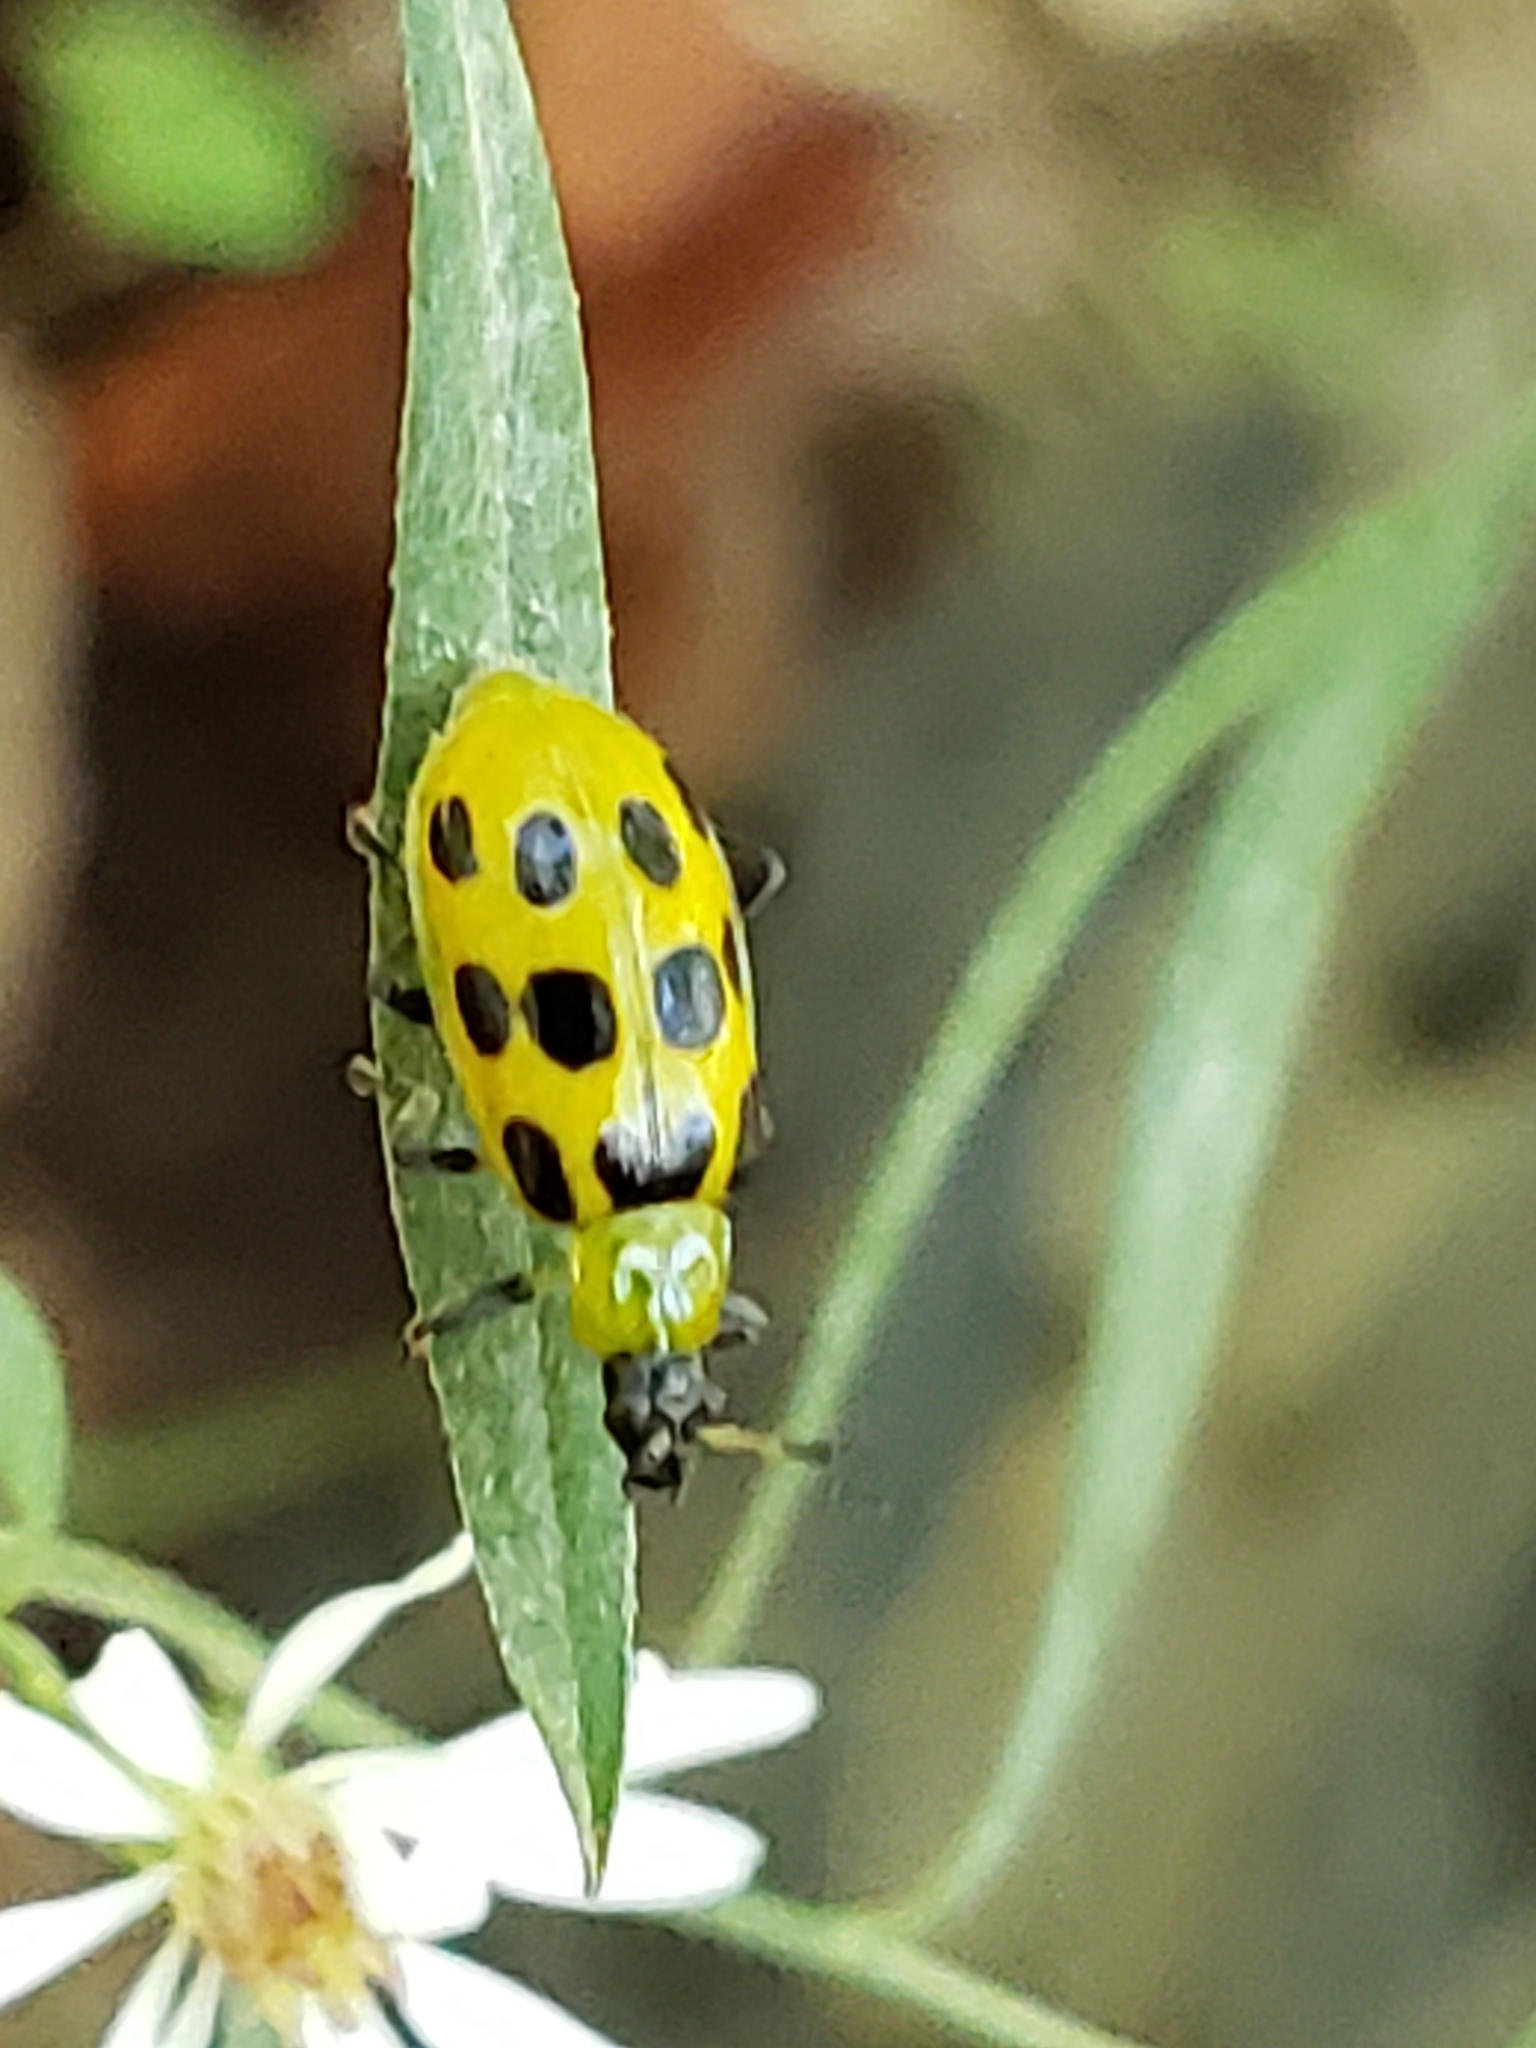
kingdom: Animalia
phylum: Arthropoda
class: Insecta
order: Coleoptera
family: Chrysomelidae
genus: Diabrotica
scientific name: Diabrotica undecimpunctata
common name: Spotted cucumber beetle
